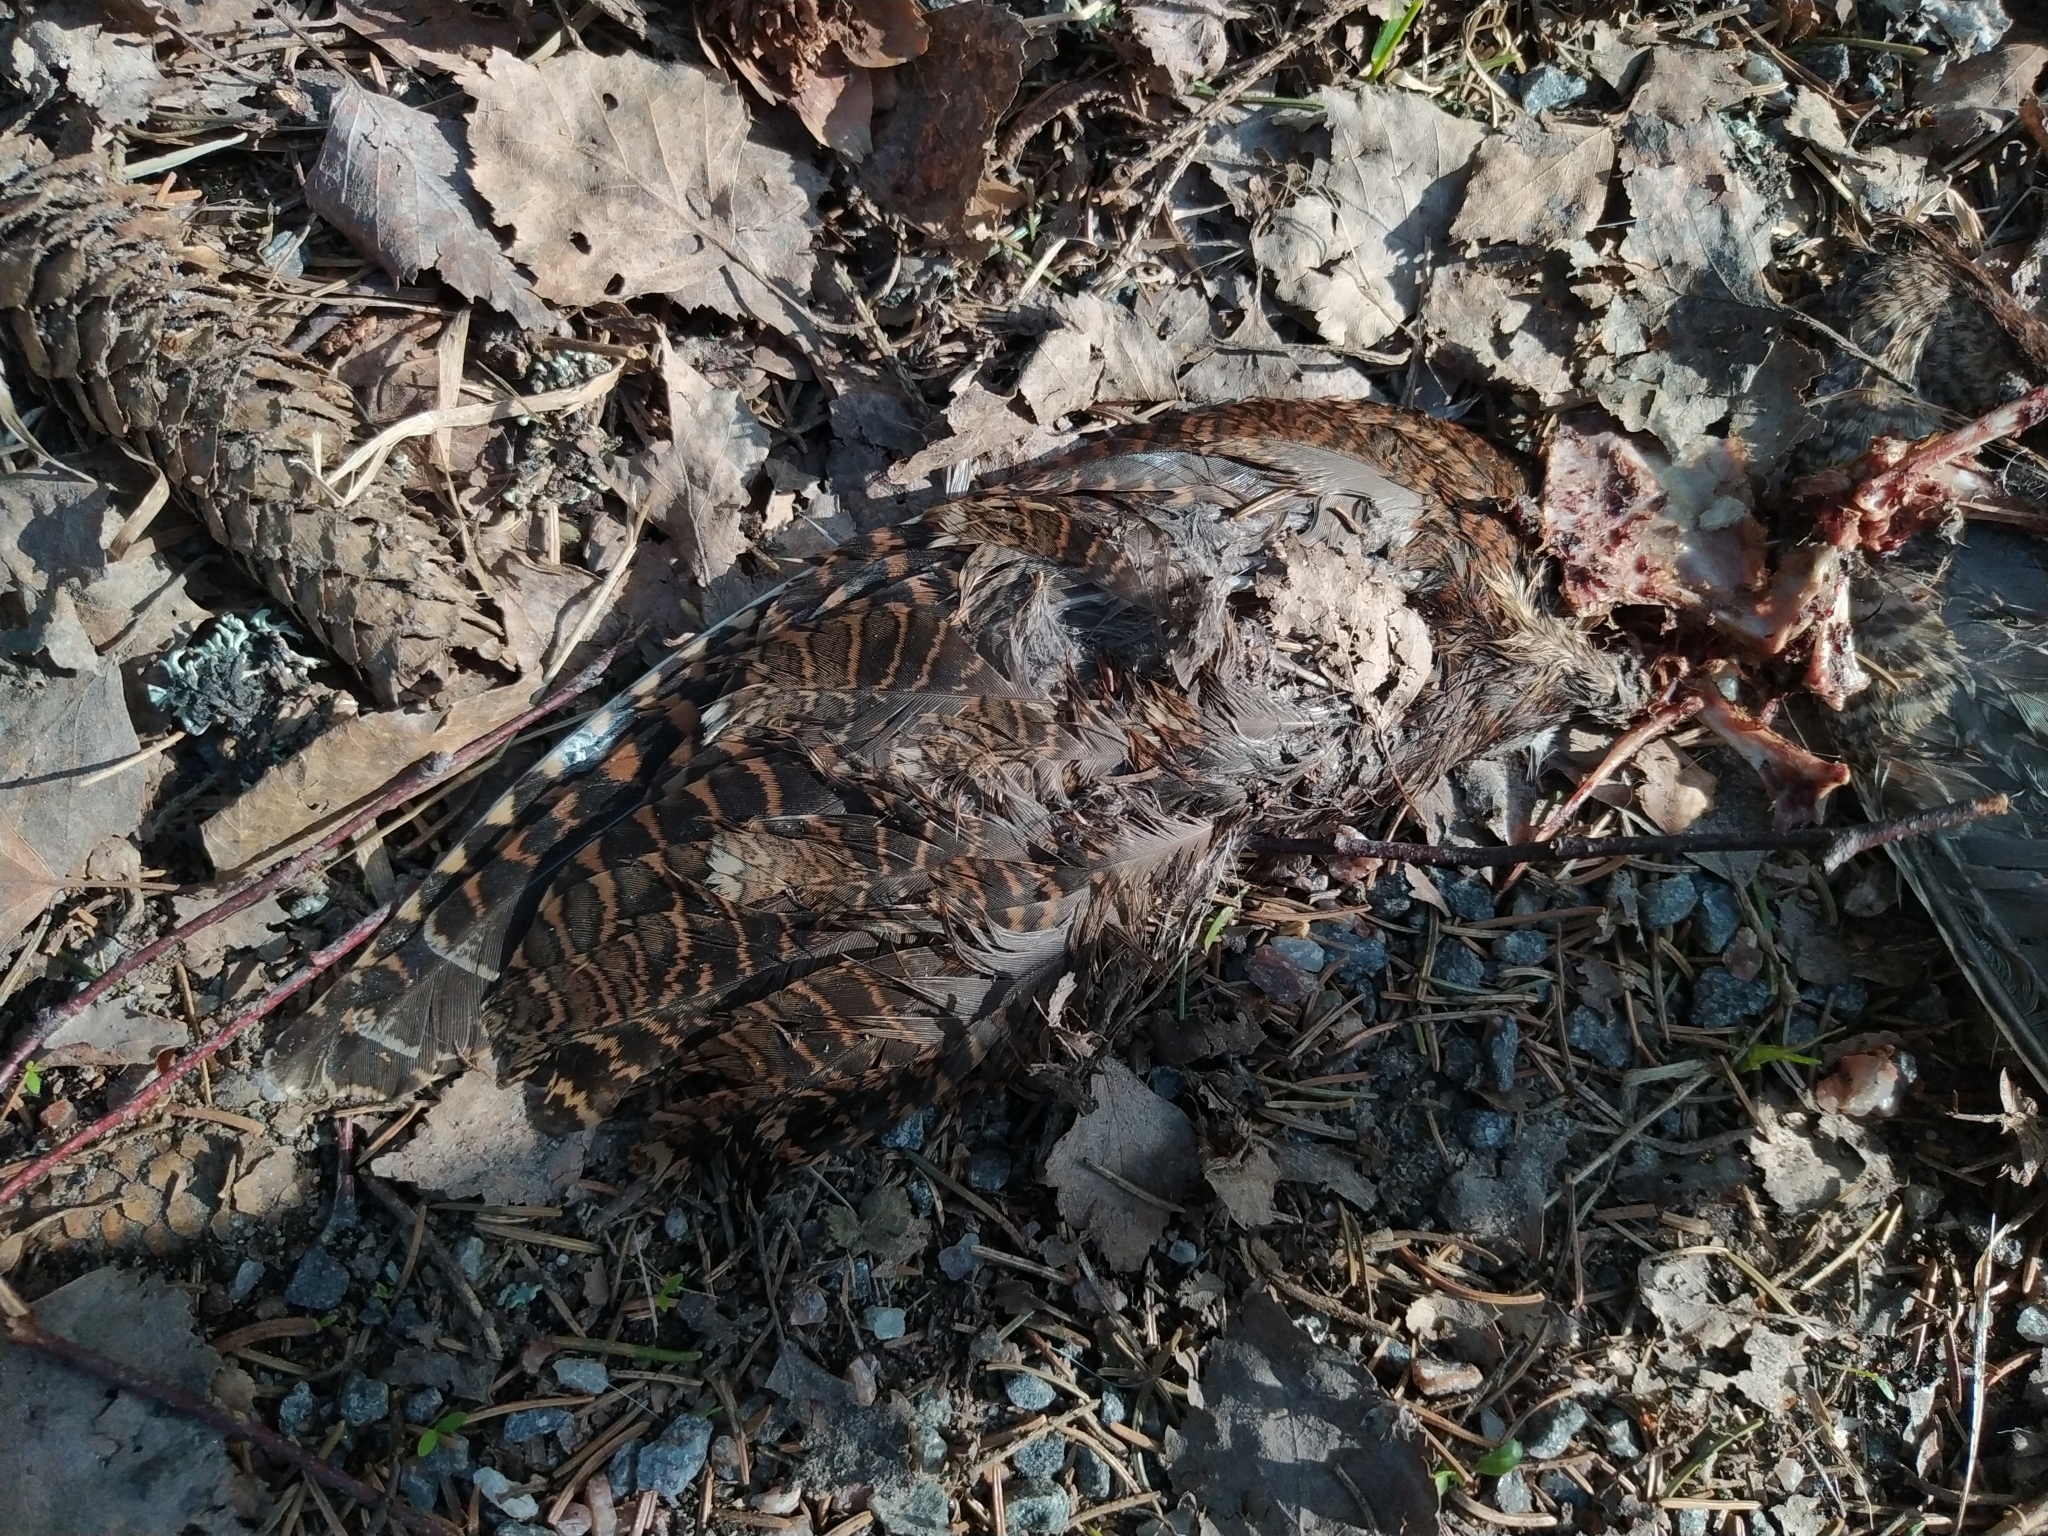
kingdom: Animalia
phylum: Chordata
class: Aves
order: Charadriiformes
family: Scolopacidae
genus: Scolopax
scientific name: Scolopax rusticola
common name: Eurasian woodcock
